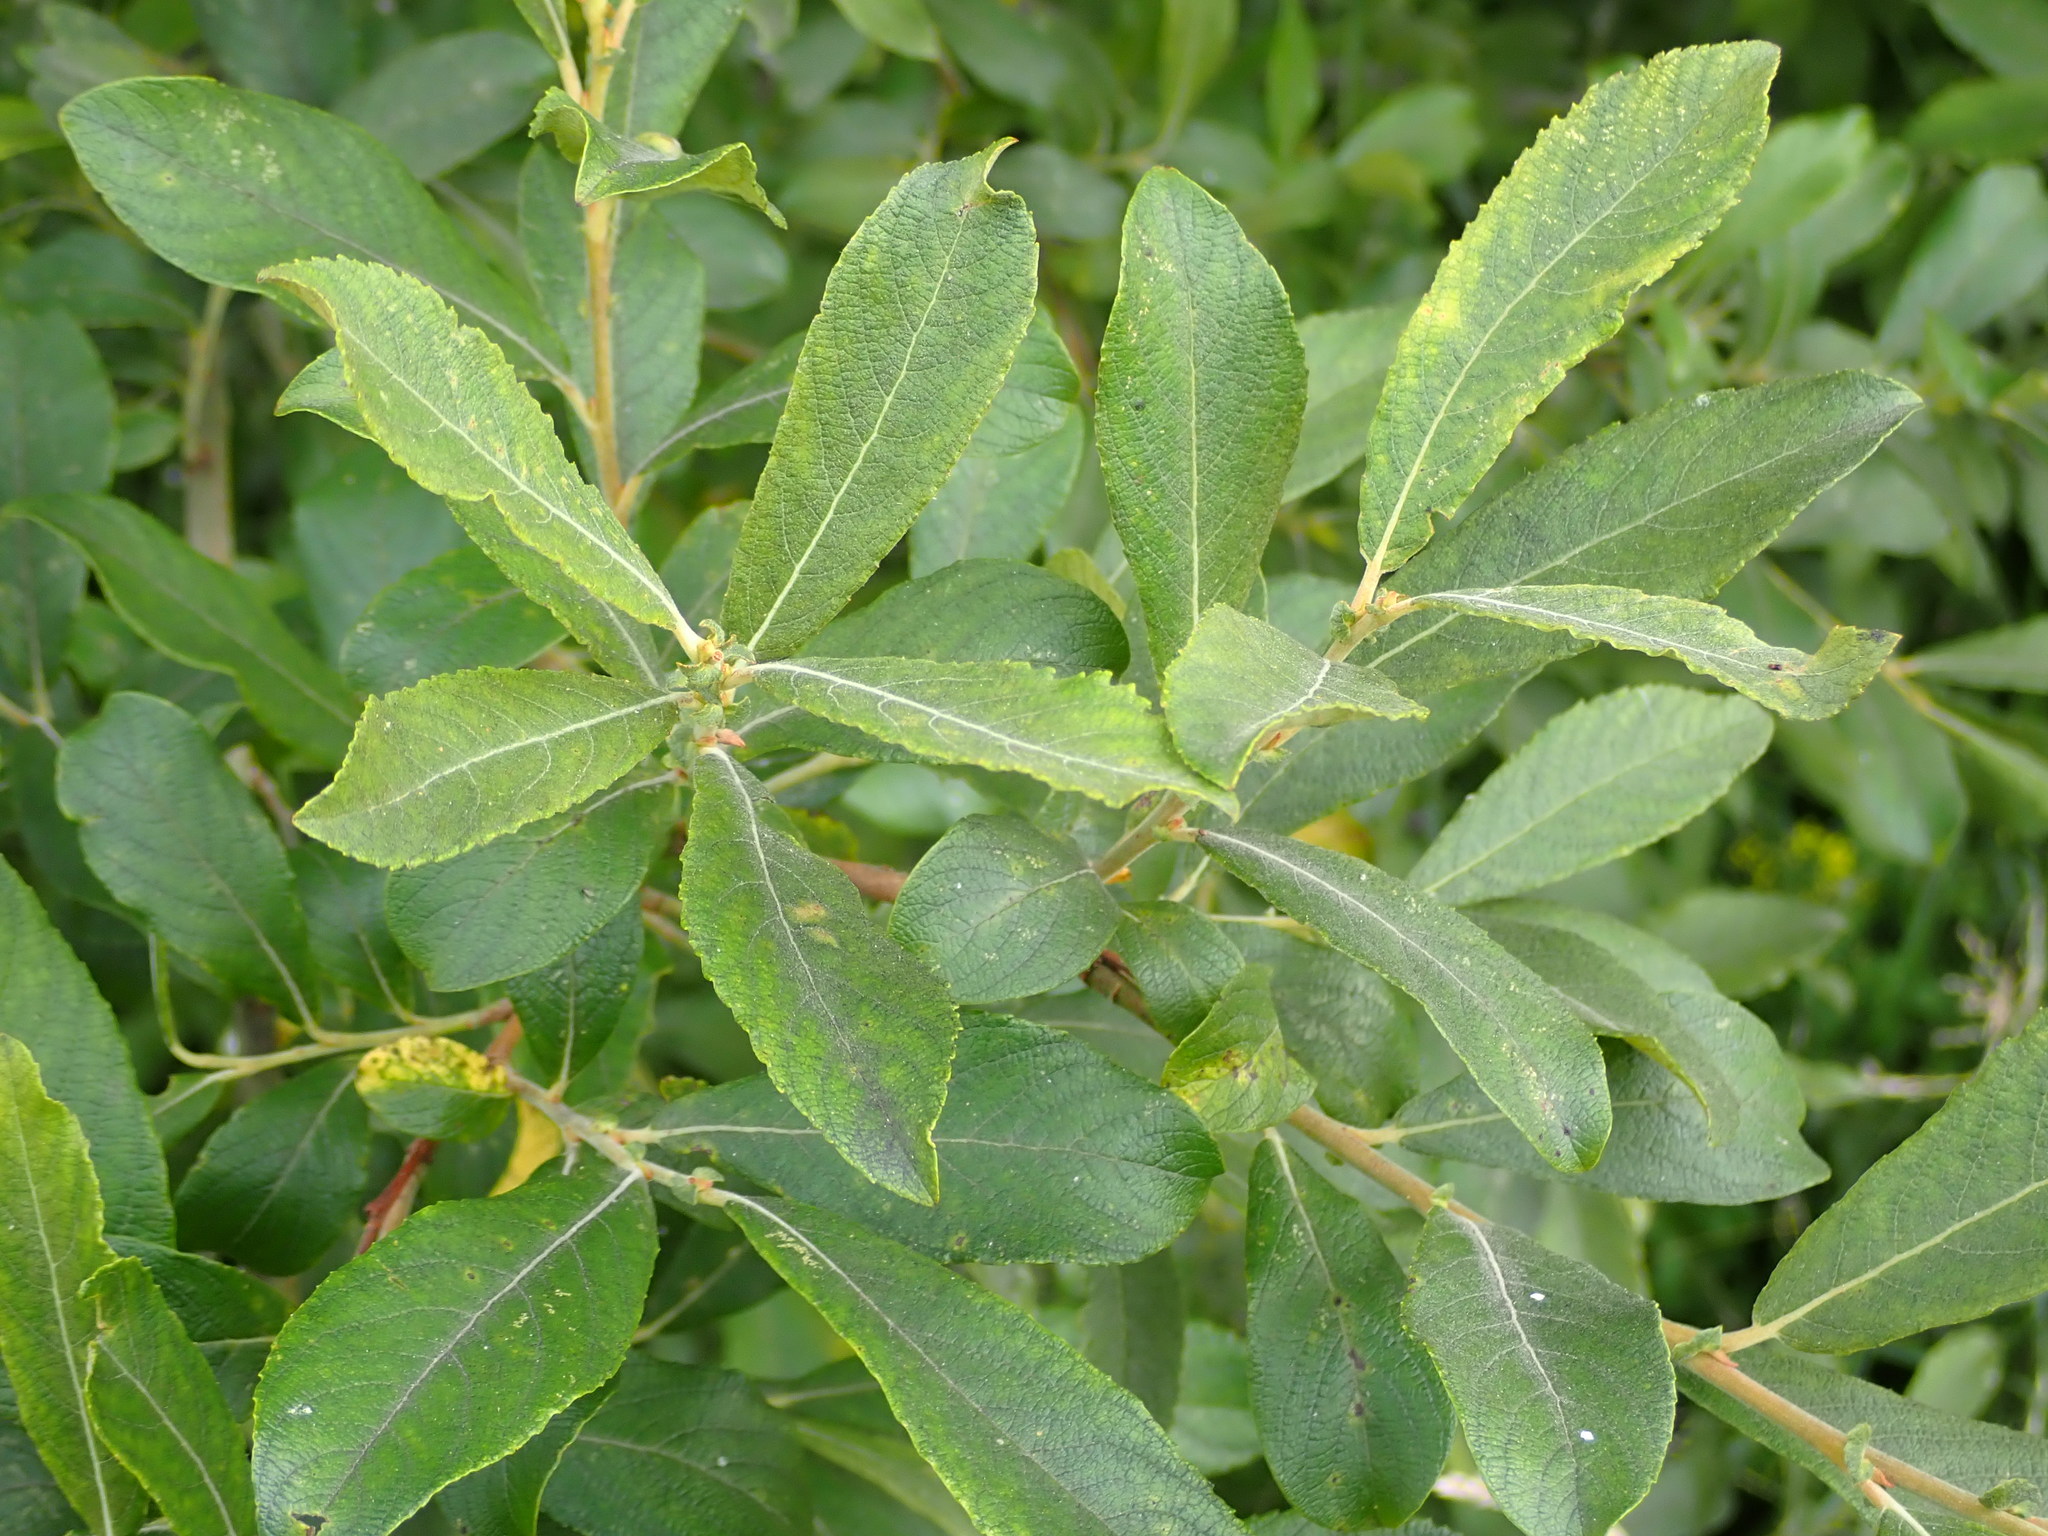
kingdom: Plantae
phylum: Tracheophyta
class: Magnoliopsida
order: Malpighiales
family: Salicaceae
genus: Salix
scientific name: Salix cinerea
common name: Common sallow
